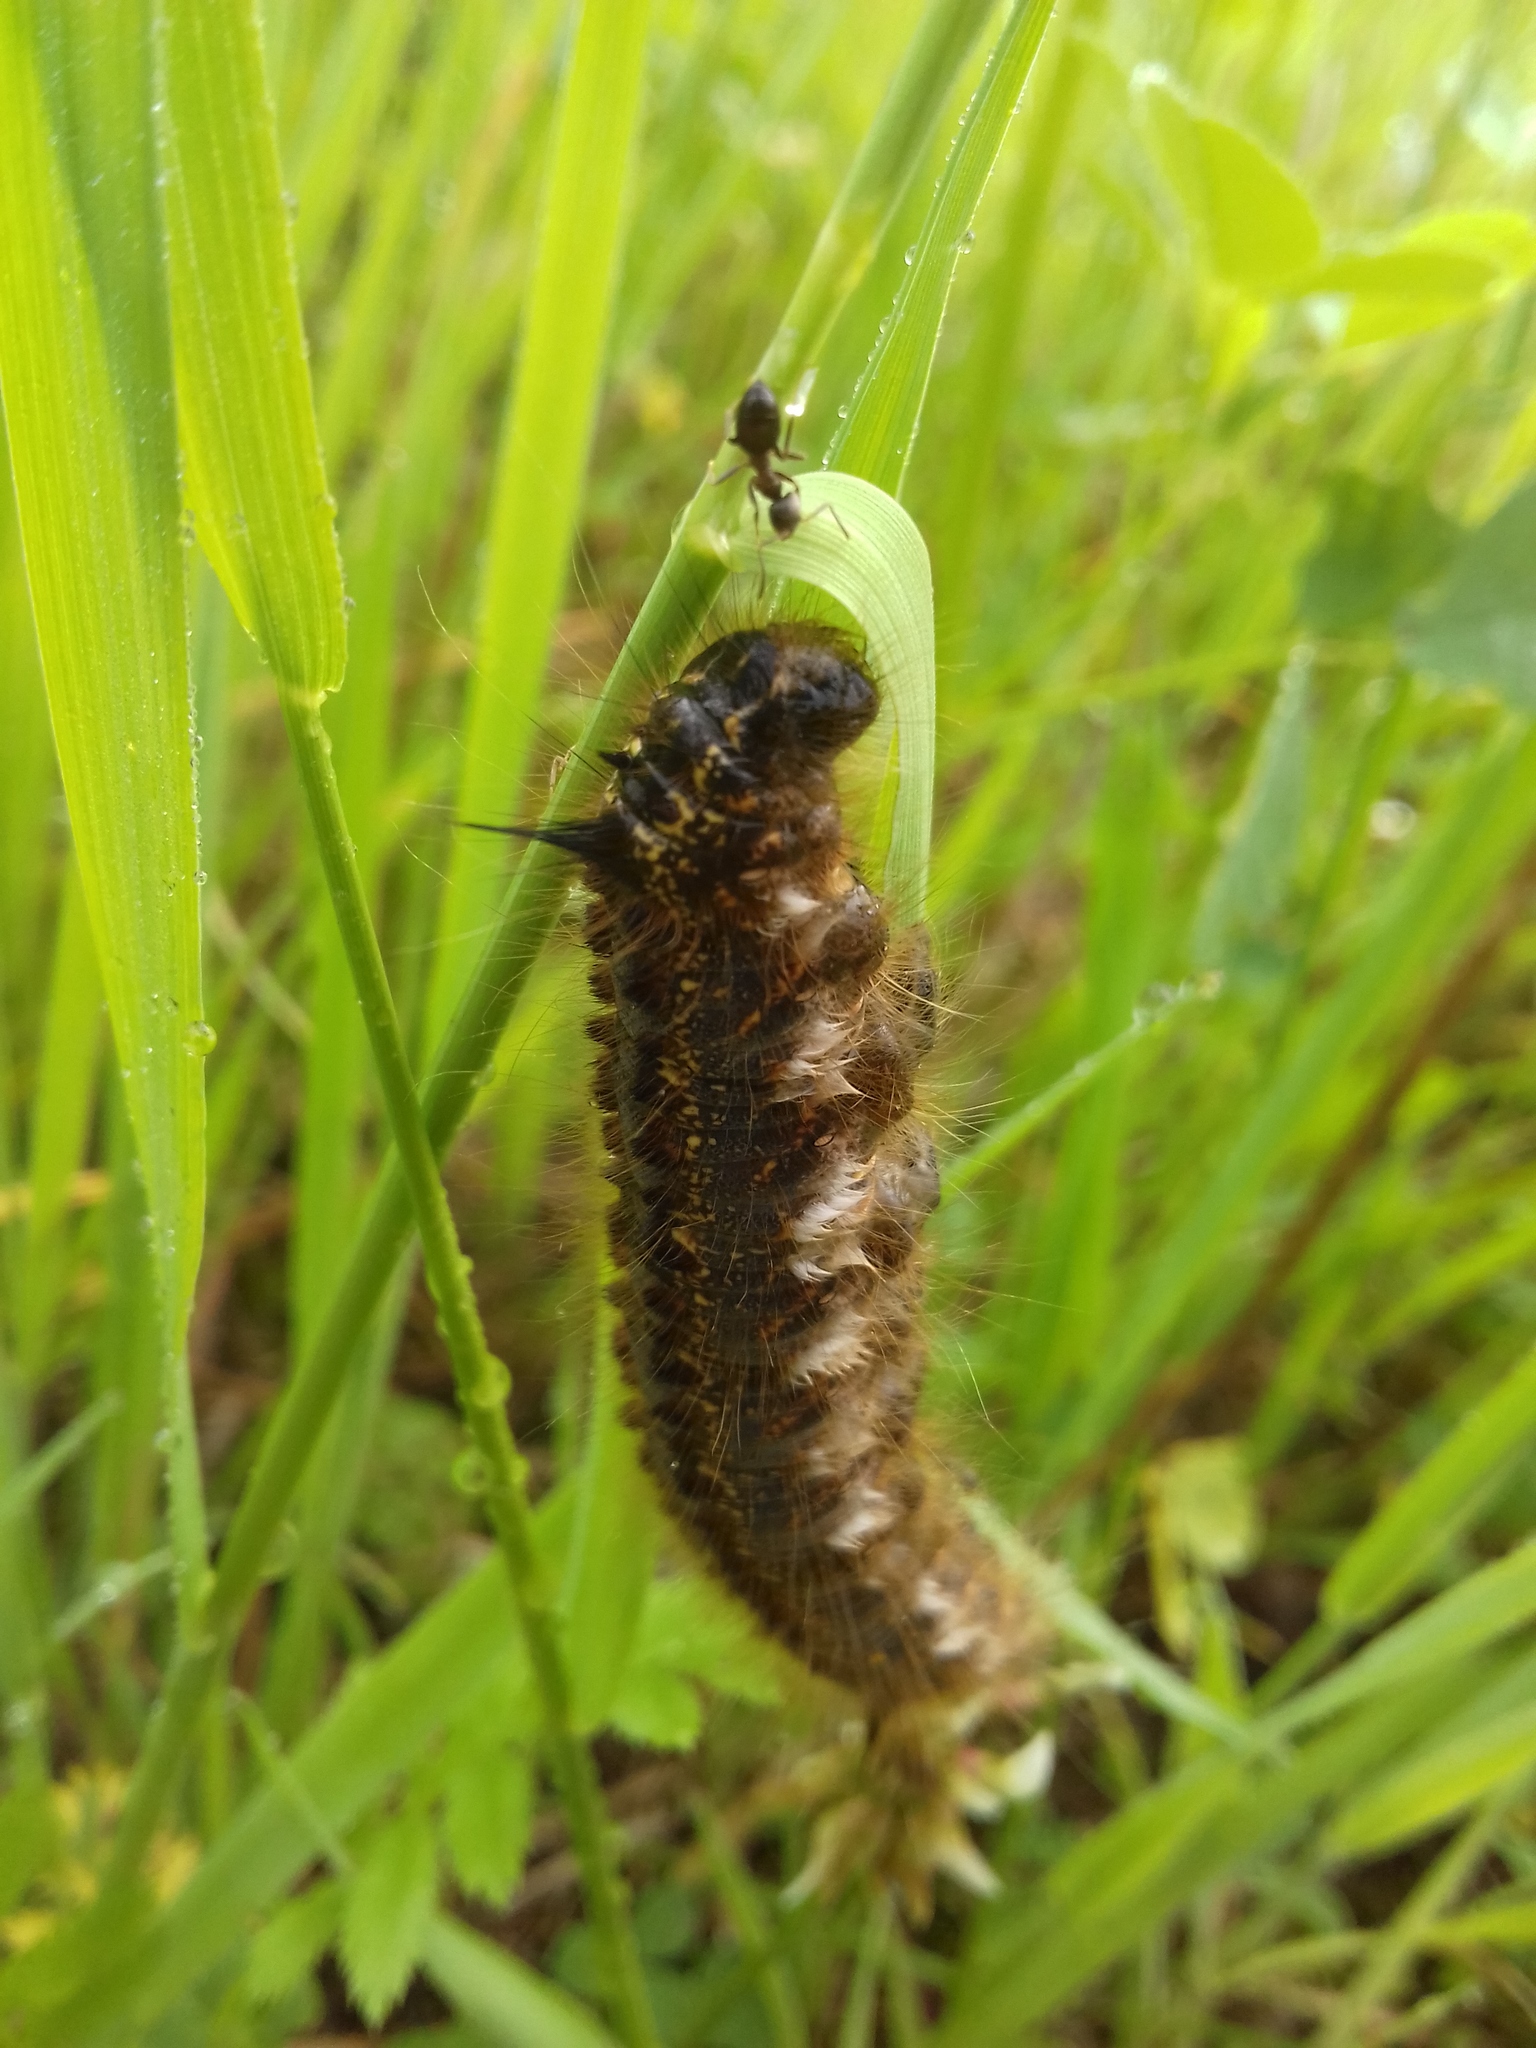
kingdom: Animalia
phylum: Arthropoda
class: Insecta
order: Lepidoptera
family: Lasiocampidae
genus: Euthrix
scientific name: Euthrix potatoria
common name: Drinker
